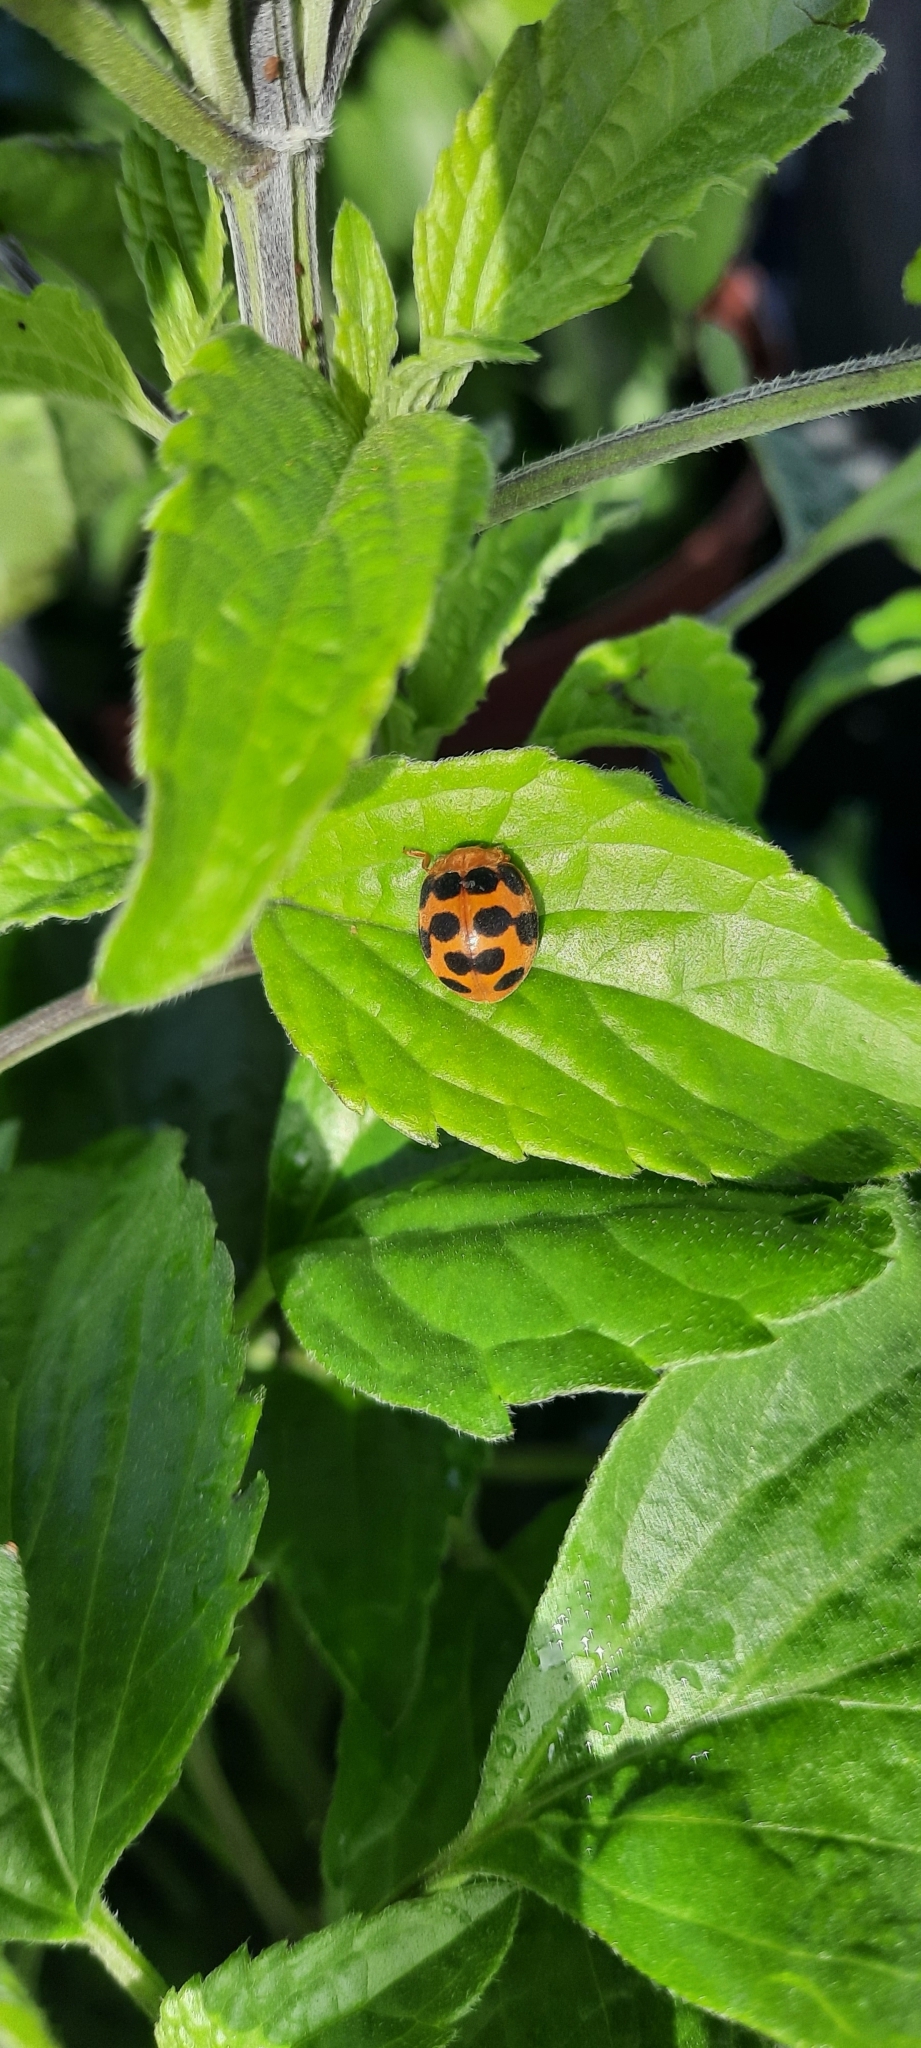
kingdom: Animalia
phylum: Arthropoda
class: Insecta
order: Coleoptera
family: Coccinellidae
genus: Chnootriba
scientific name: Chnootriba
